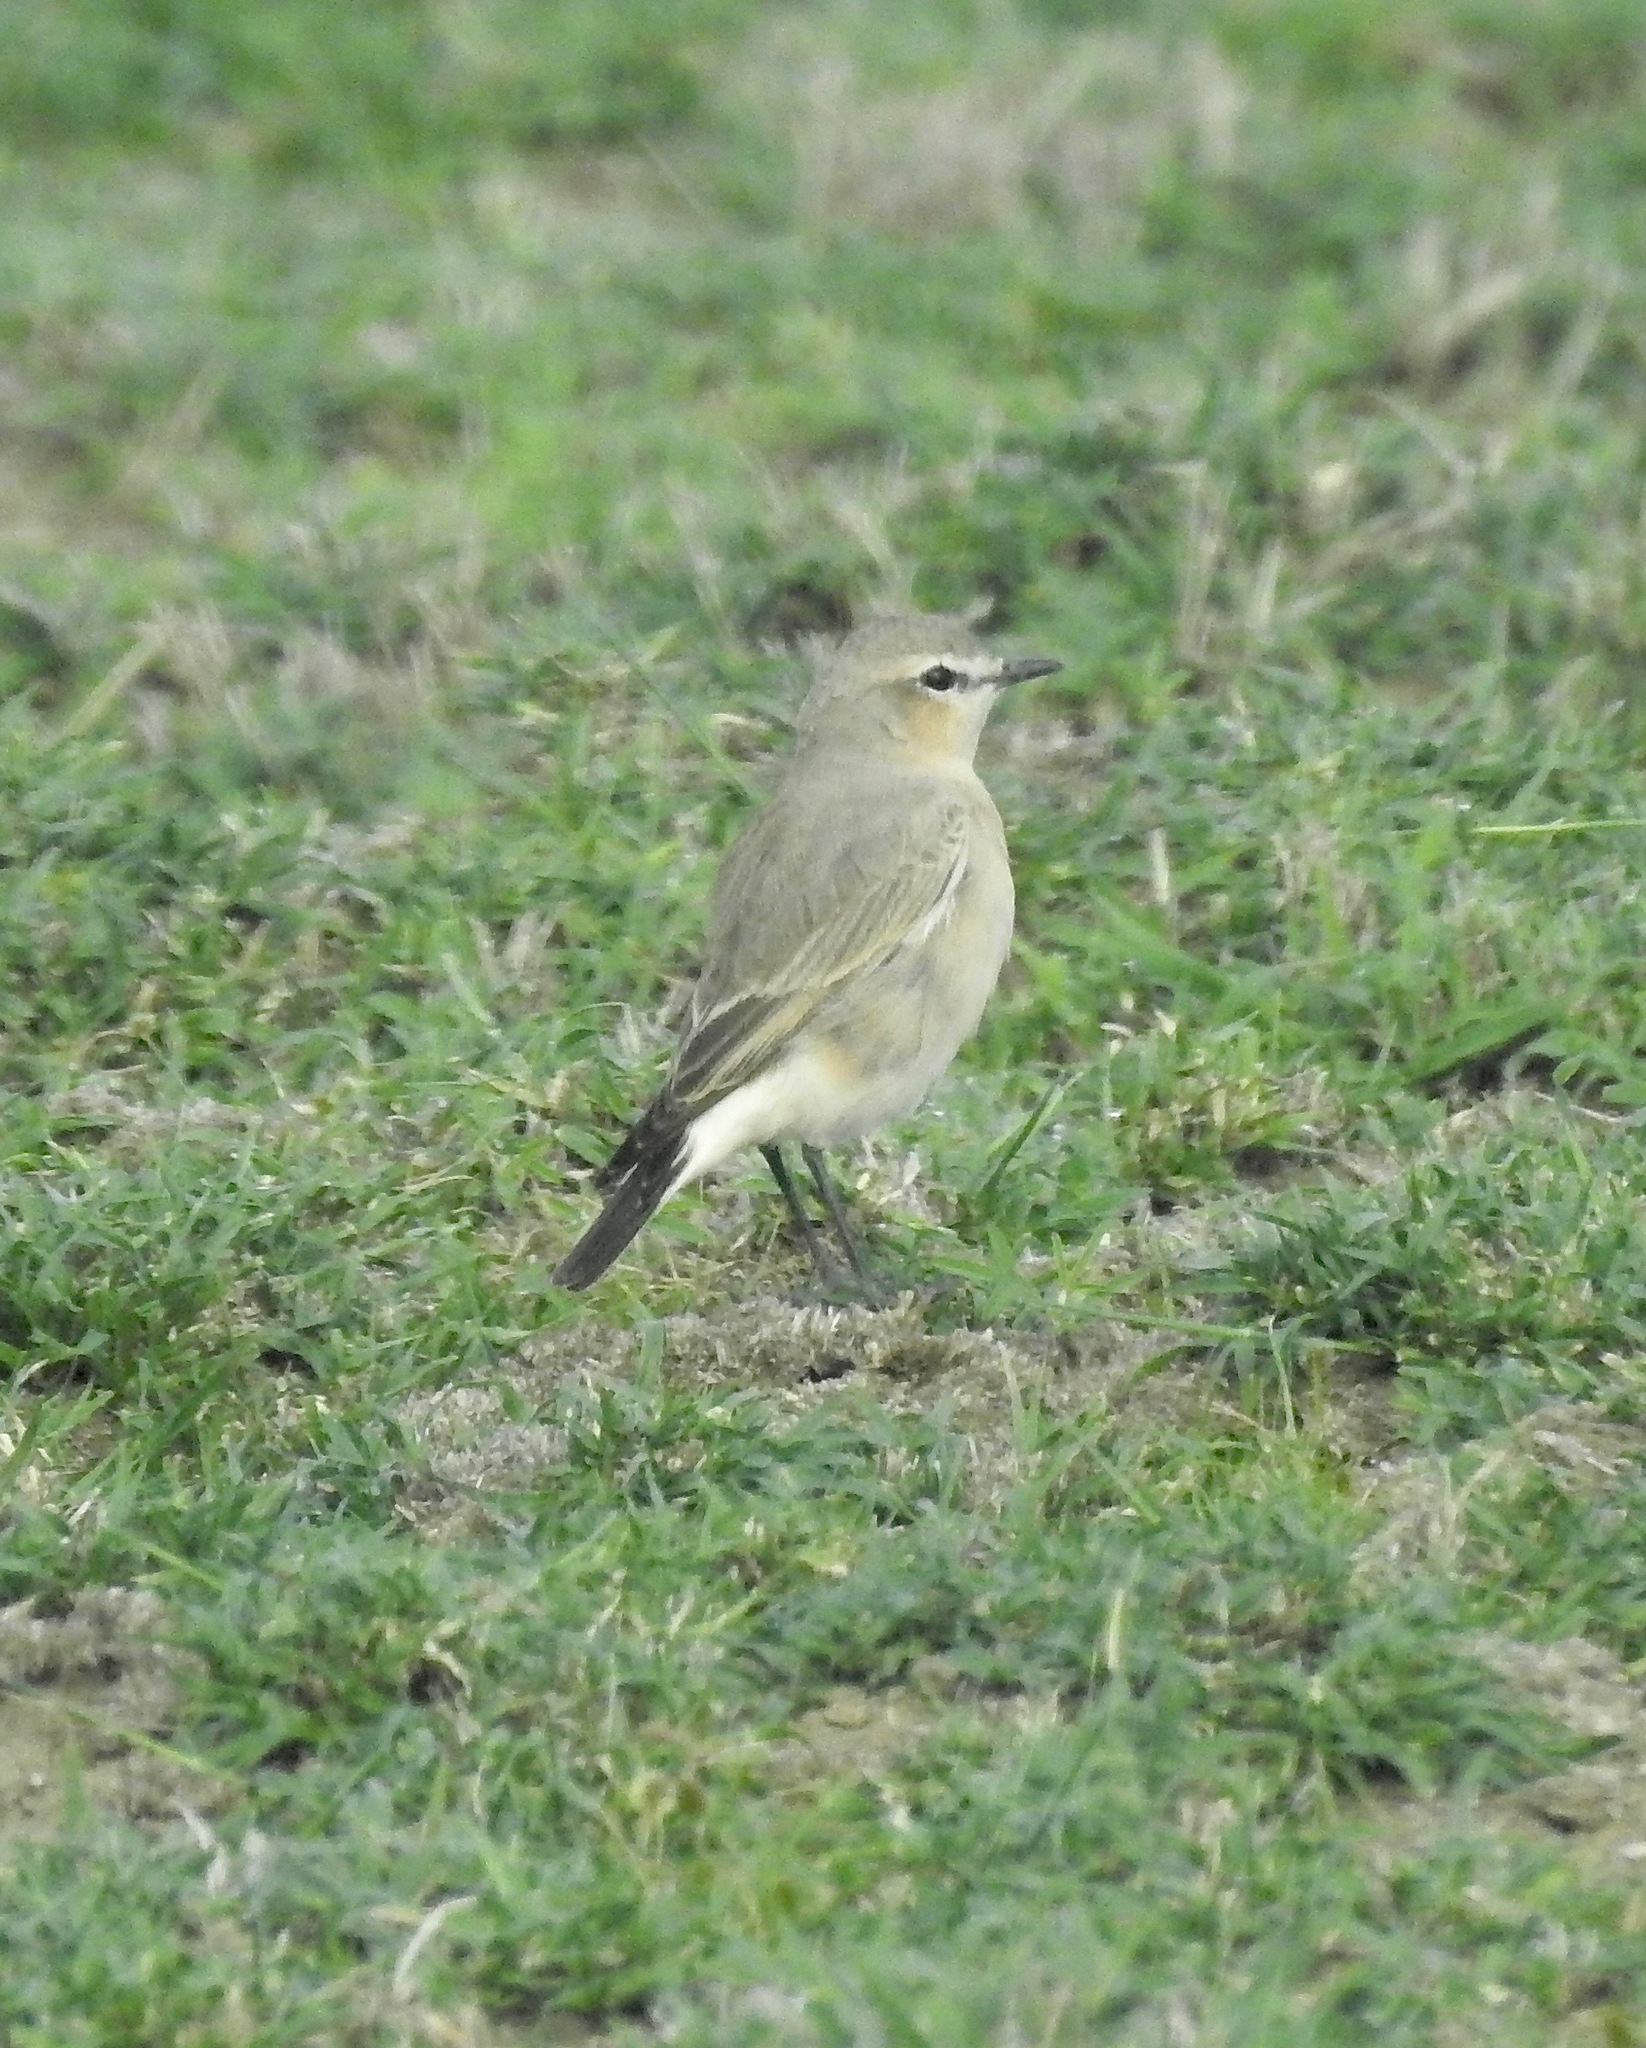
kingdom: Animalia
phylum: Chordata
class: Aves
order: Passeriformes
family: Muscicapidae
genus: Oenanthe
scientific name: Oenanthe isabellina
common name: Isabelline wheatear
